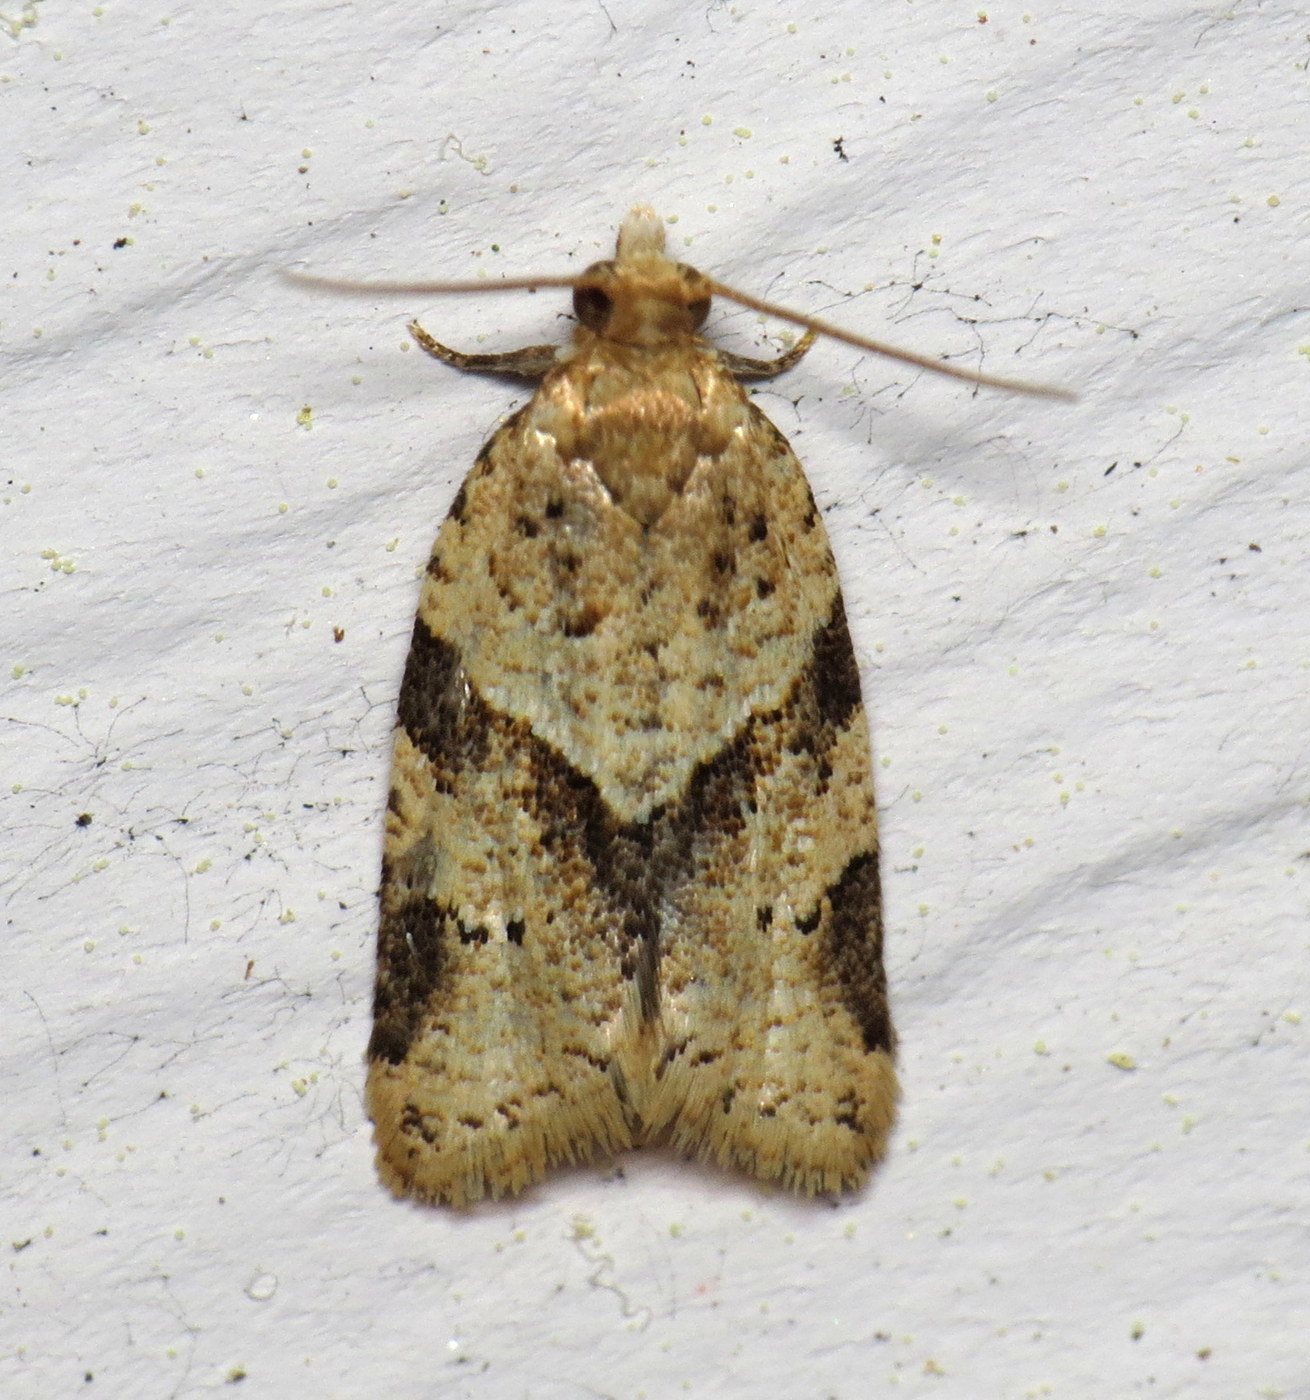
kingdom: Animalia
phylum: Arthropoda
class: Insecta
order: Lepidoptera
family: Tortricidae
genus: Clepsis
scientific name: Clepsis peritana
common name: Garden tortrix
